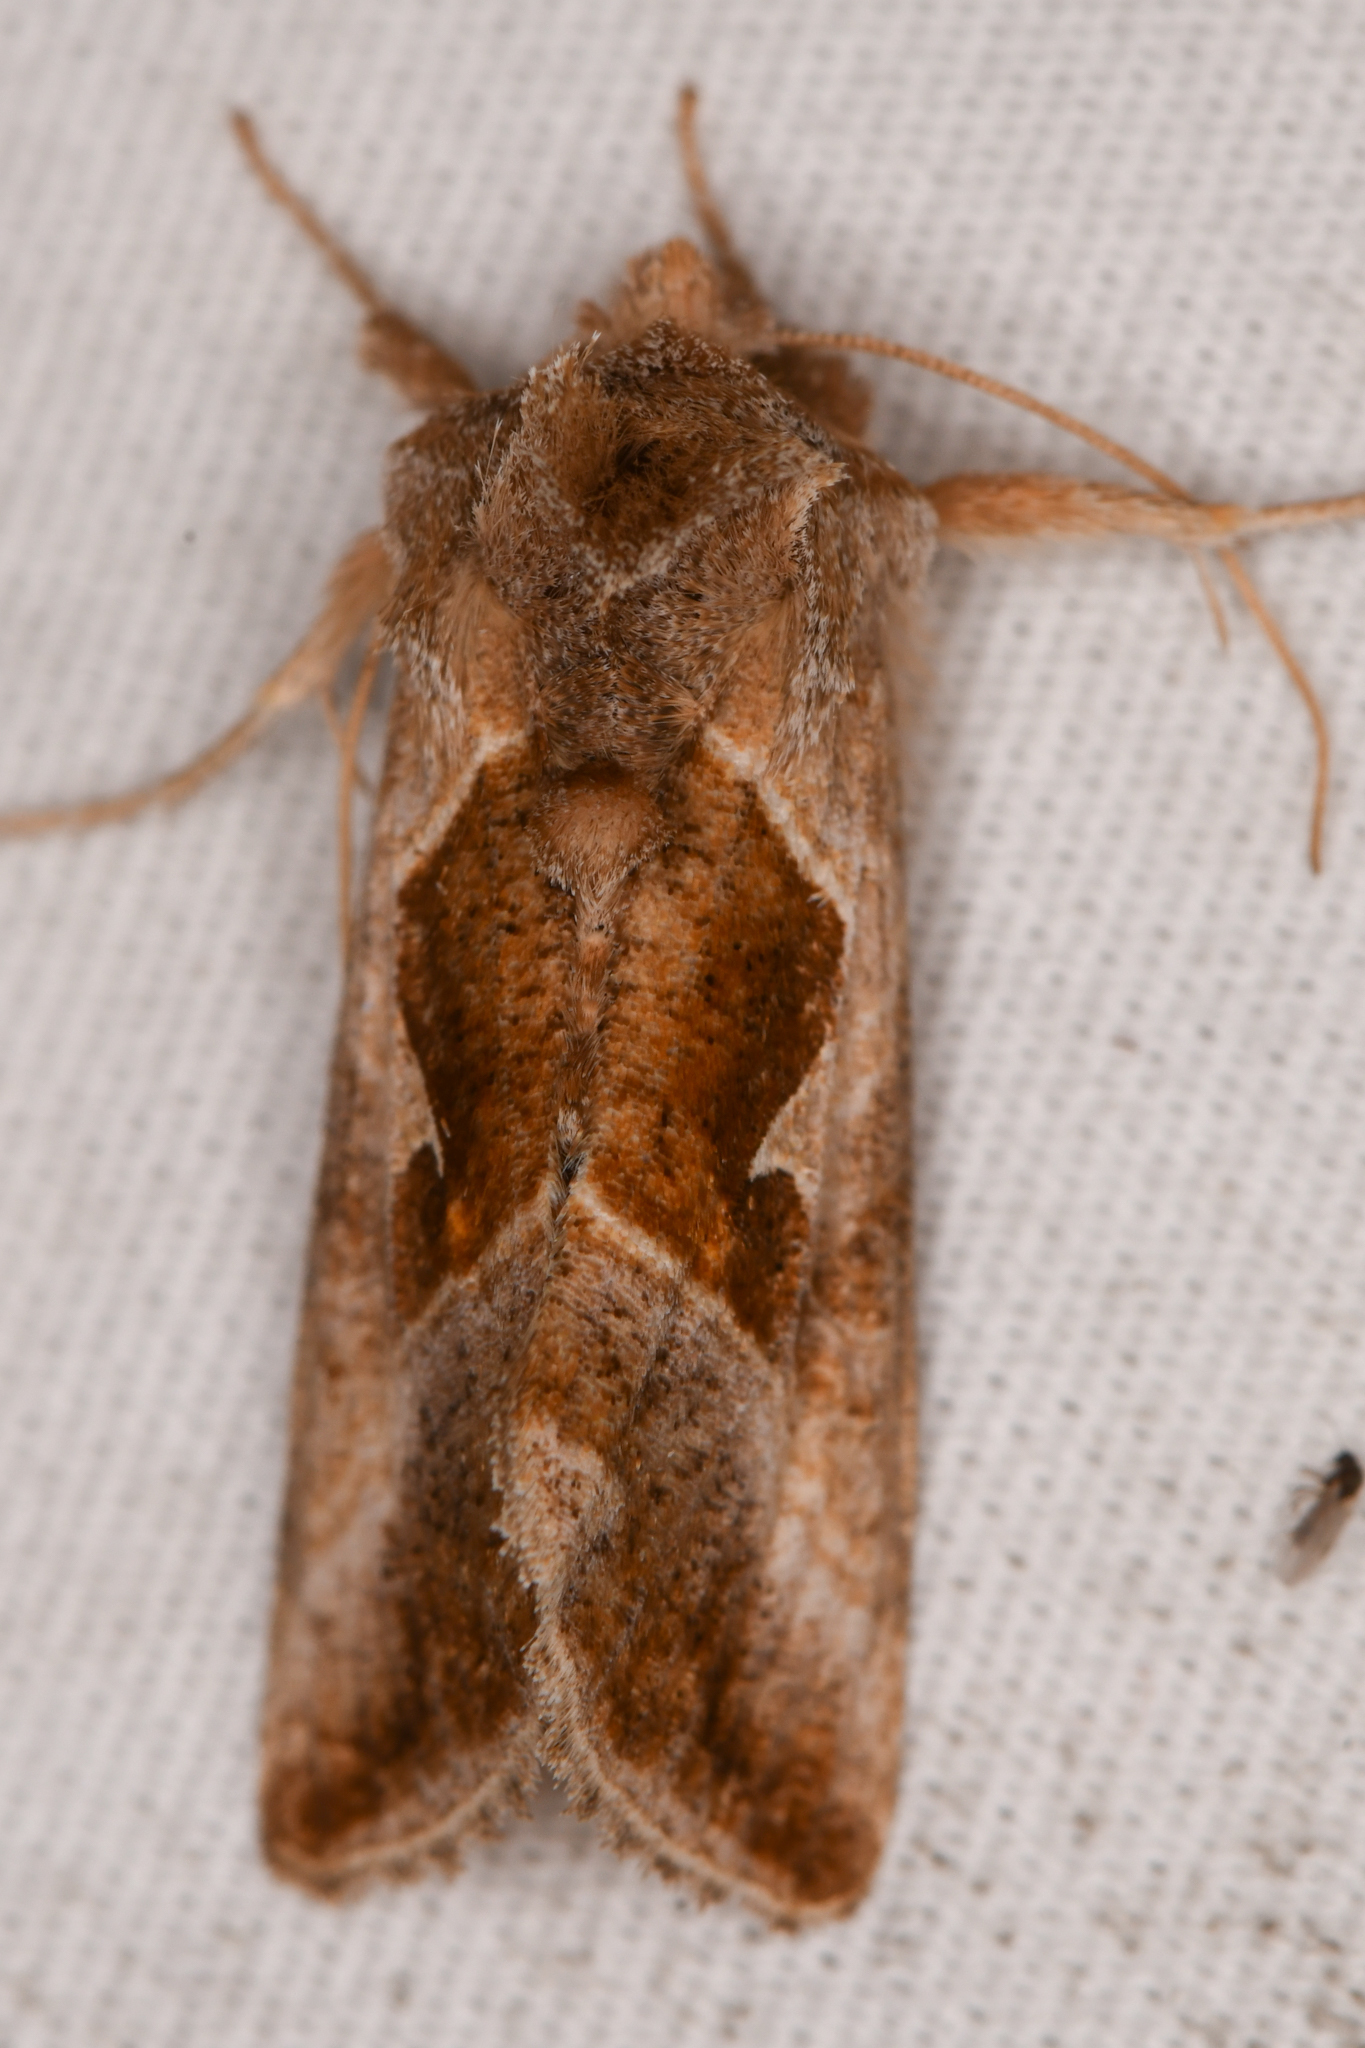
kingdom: Animalia
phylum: Arthropoda
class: Insecta
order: Lepidoptera
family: Noctuidae
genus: Autographa
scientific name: Autographa pasiphaeia
